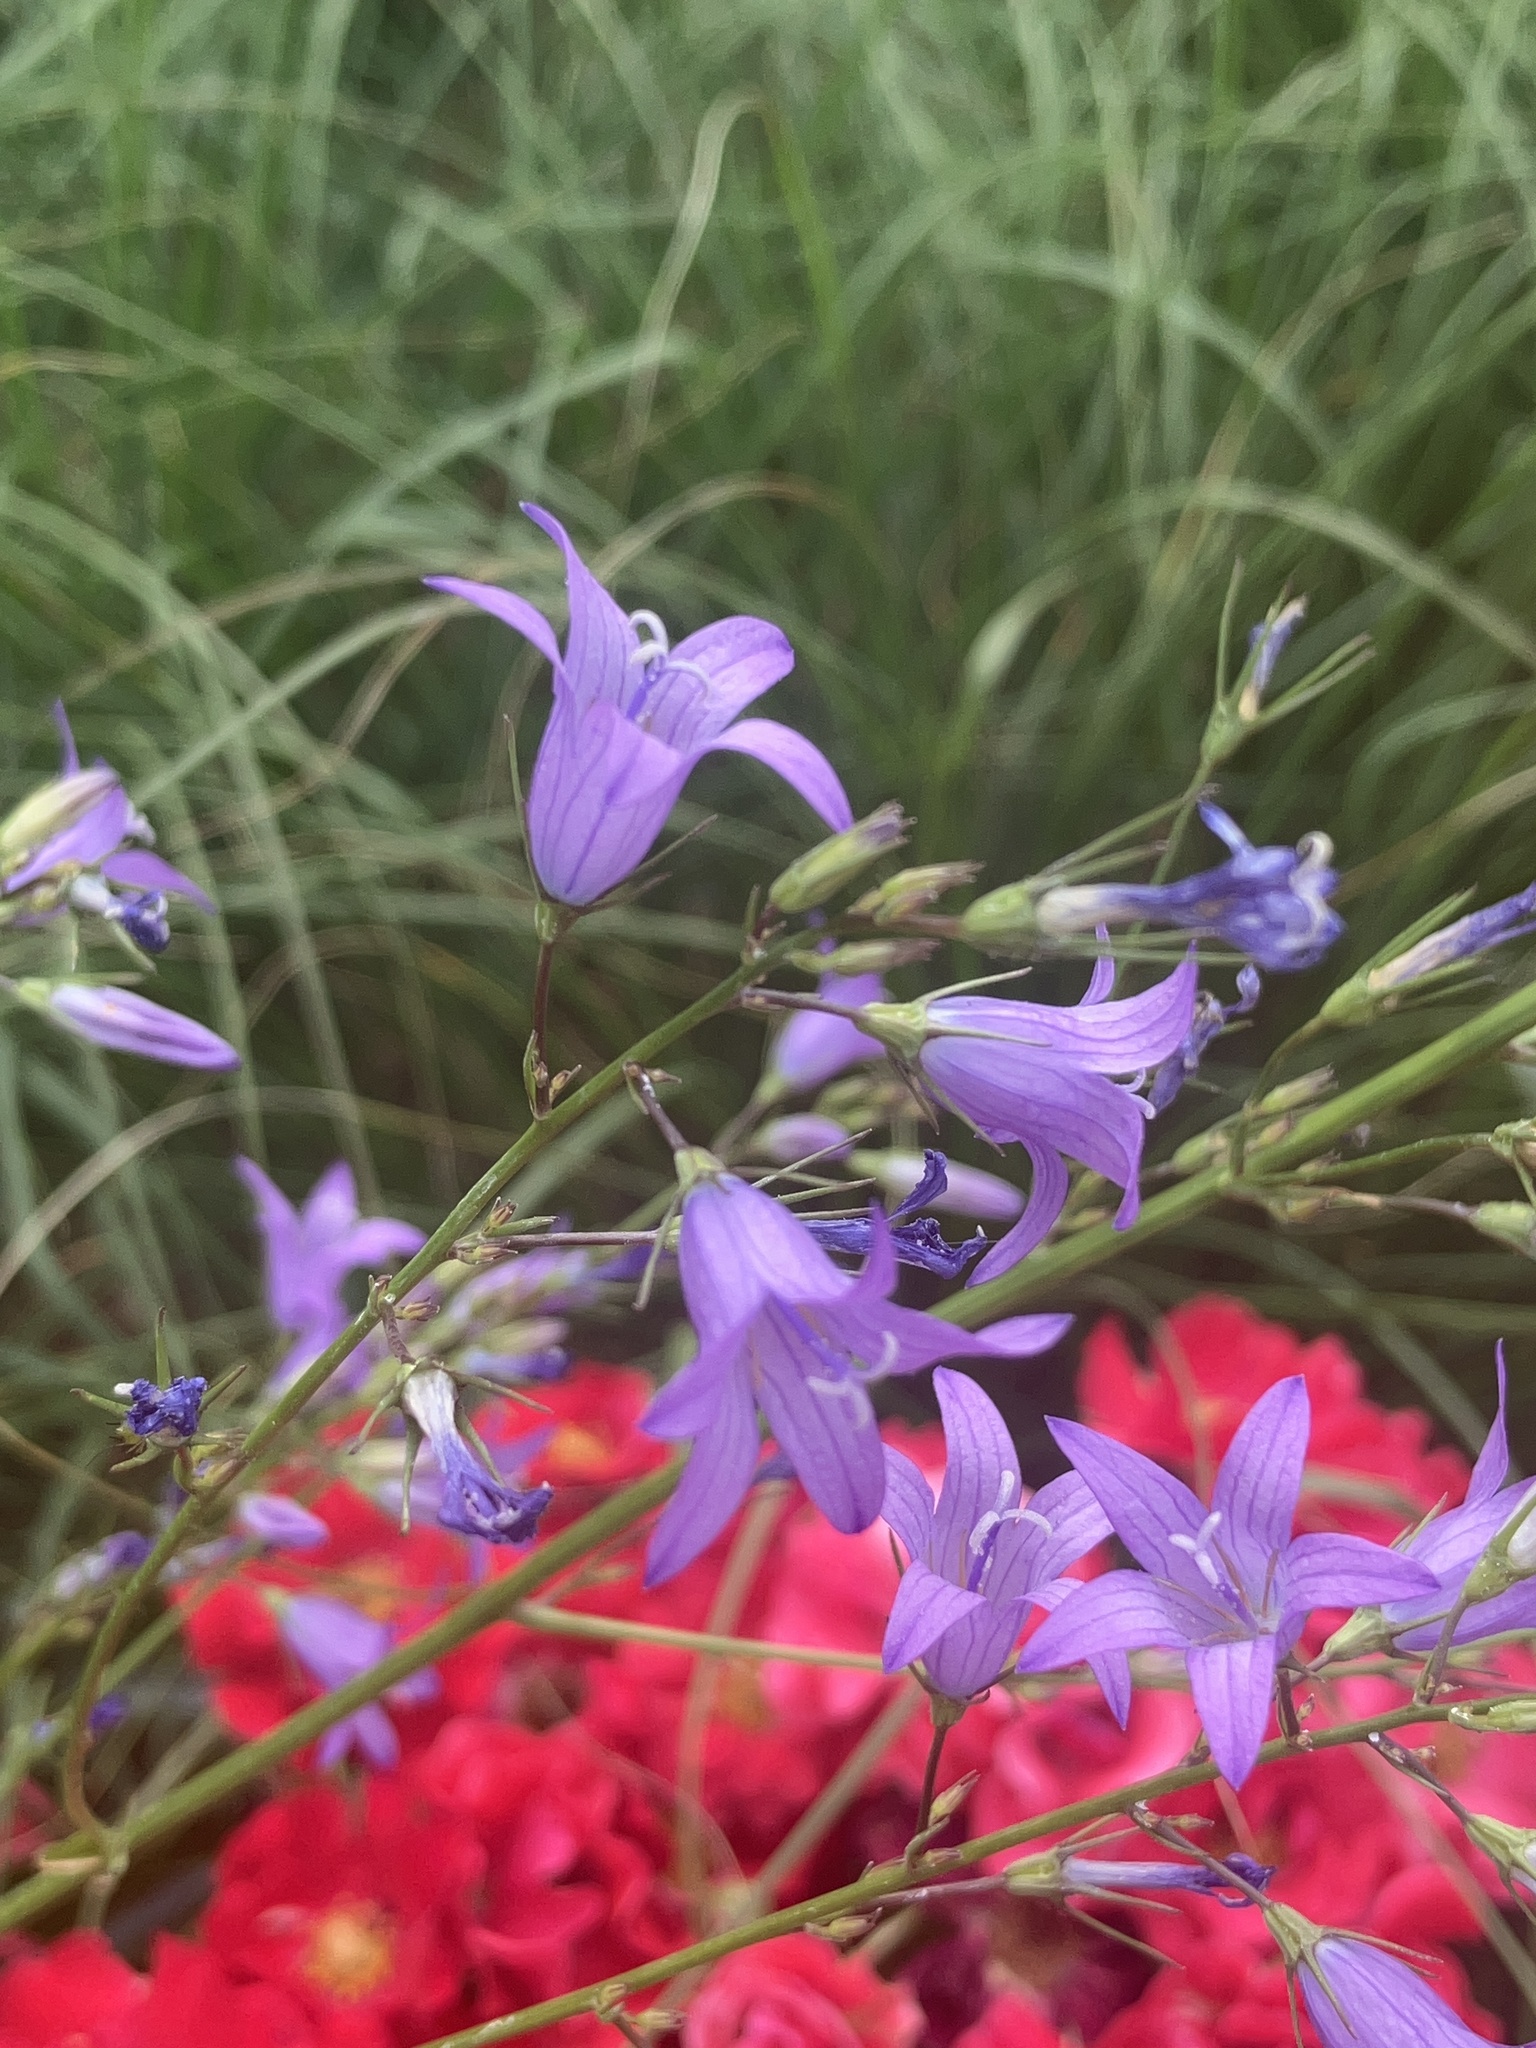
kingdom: Plantae
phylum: Tracheophyta
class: Magnoliopsida
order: Asterales
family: Campanulaceae
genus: Campanula
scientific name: Campanula rapunculus
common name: Rampion bellflower
